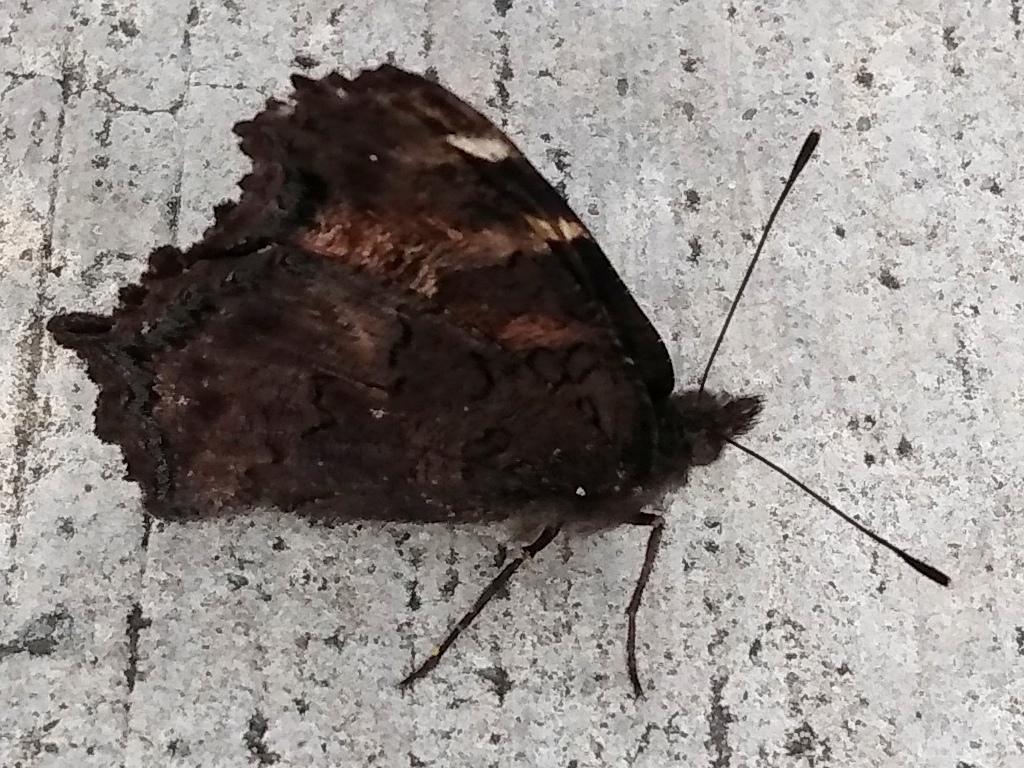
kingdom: Animalia
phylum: Arthropoda
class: Insecta
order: Lepidoptera
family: Nymphalidae
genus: Nymphalis
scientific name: Nymphalis californica
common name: California tortoiseshell
